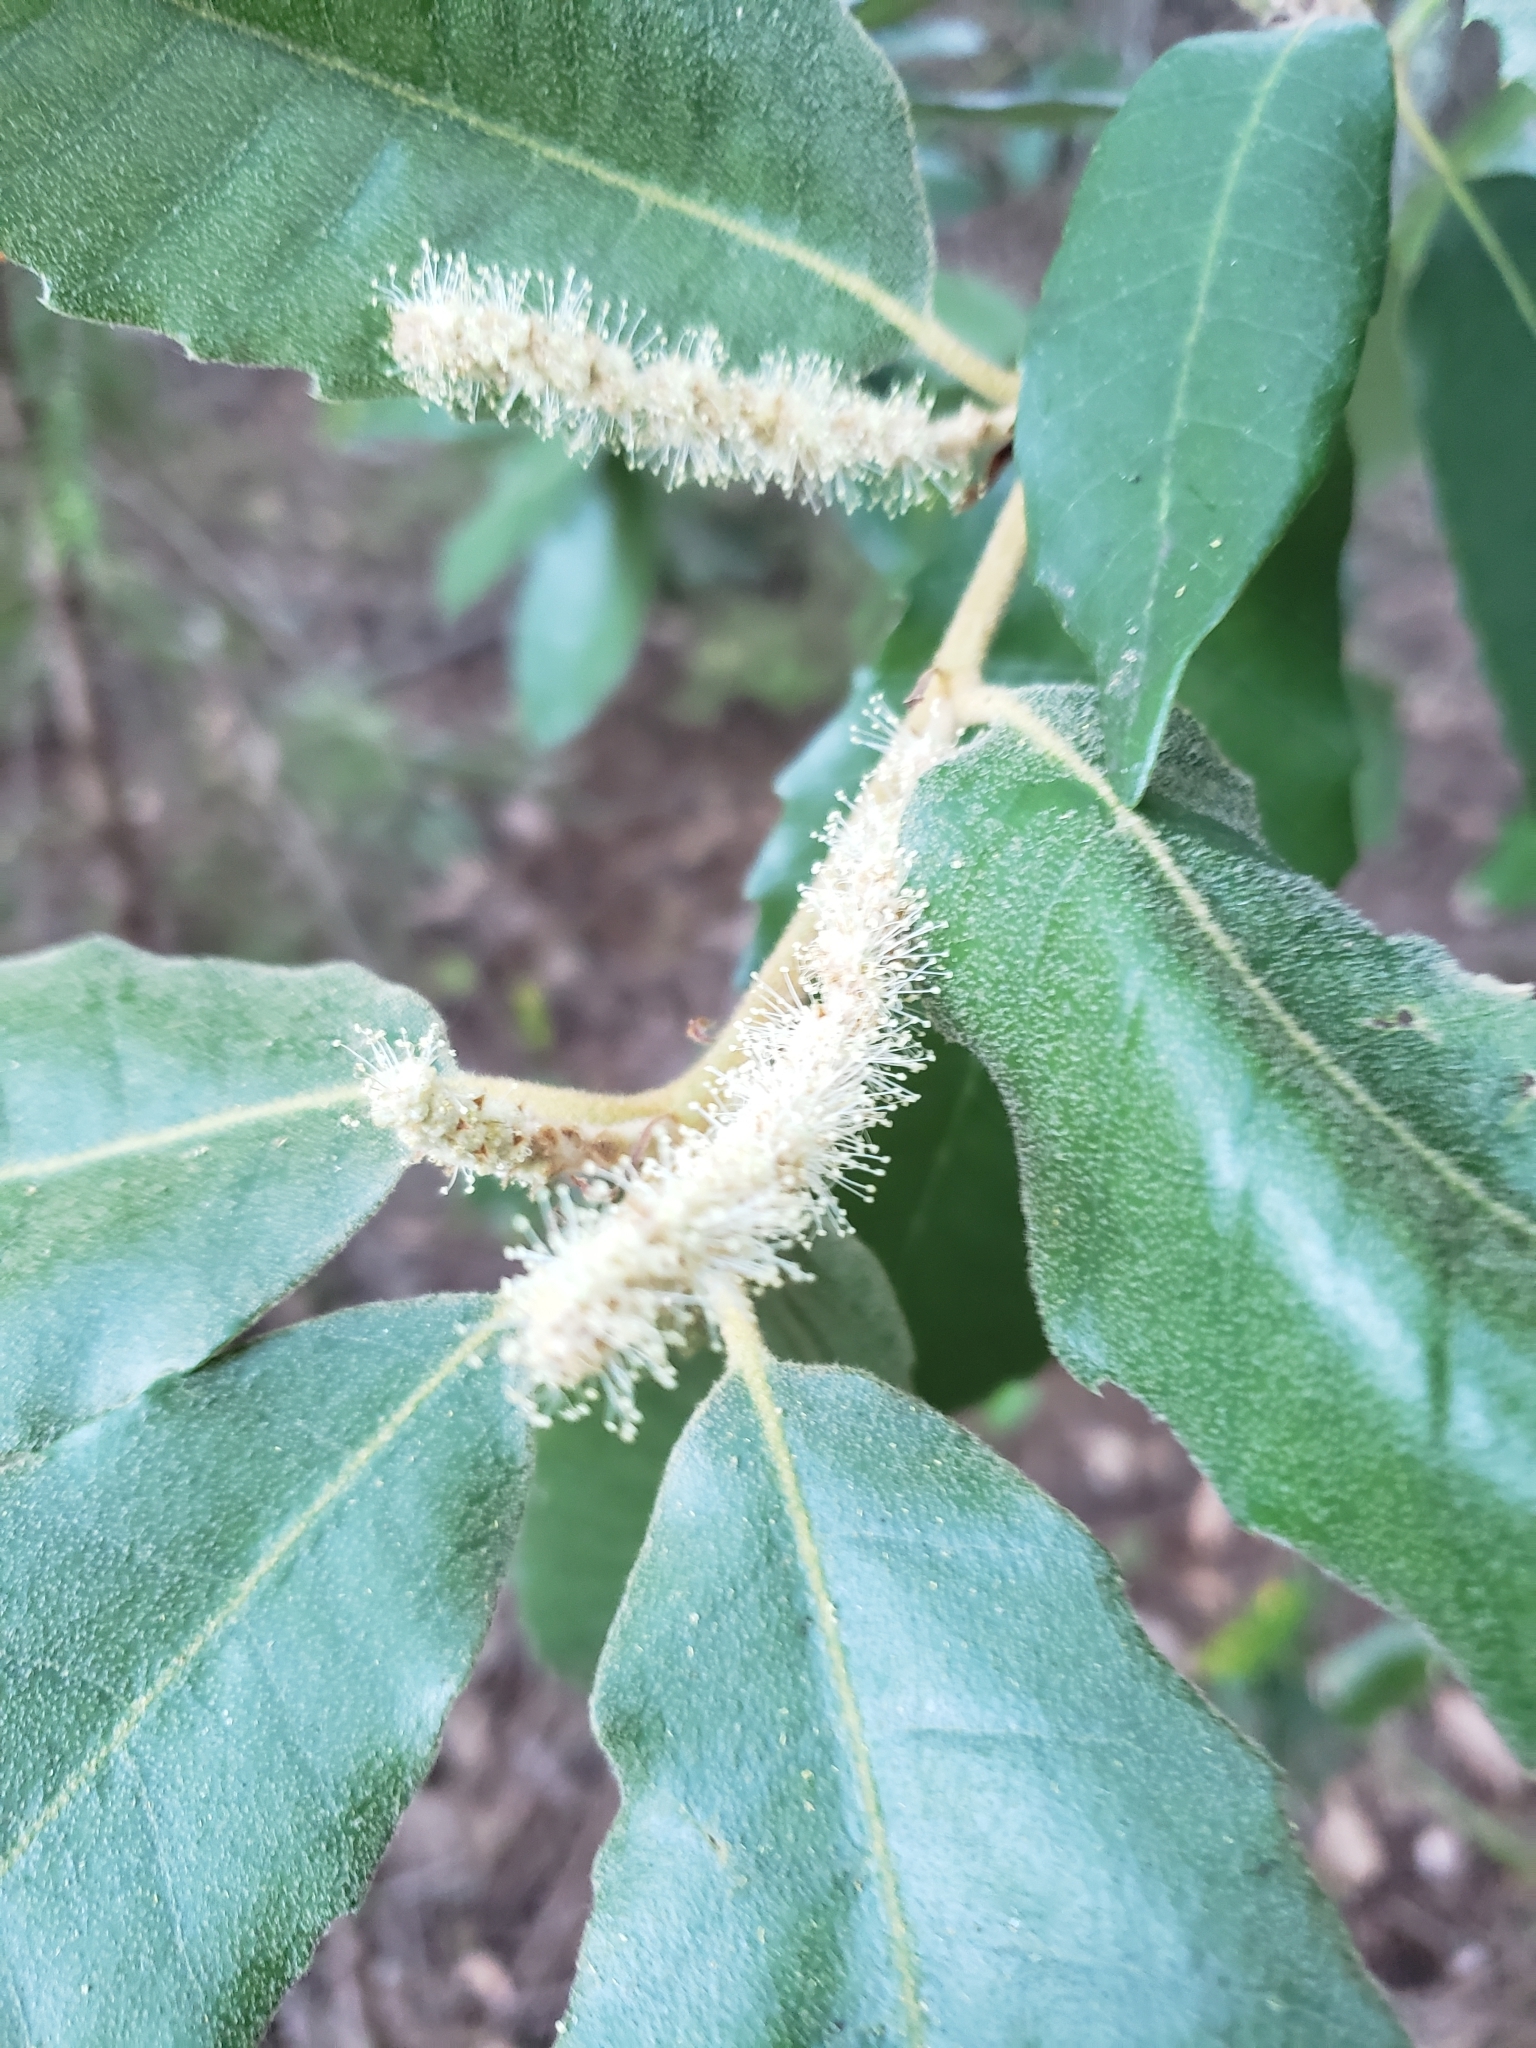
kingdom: Plantae
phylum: Tracheophyta
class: Magnoliopsida
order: Fagales
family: Fagaceae
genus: Notholithocarpus
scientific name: Notholithocarpus densiflorus
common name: Tan bark oak
